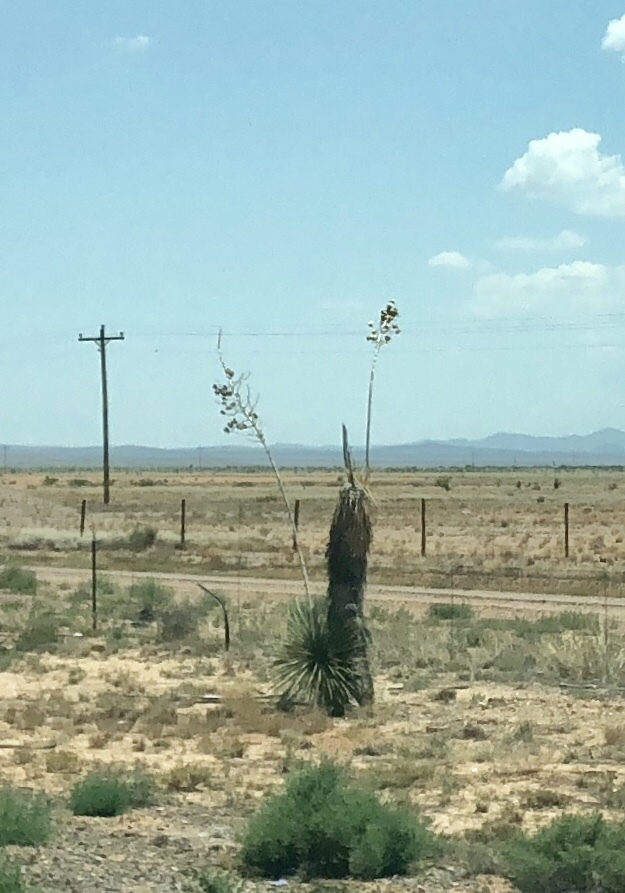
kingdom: Plantae
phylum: Tracheophyta
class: Liliopsida
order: Asparagales
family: Asparagaceae
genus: Yucca
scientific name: Yucca elata
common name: Palmella
